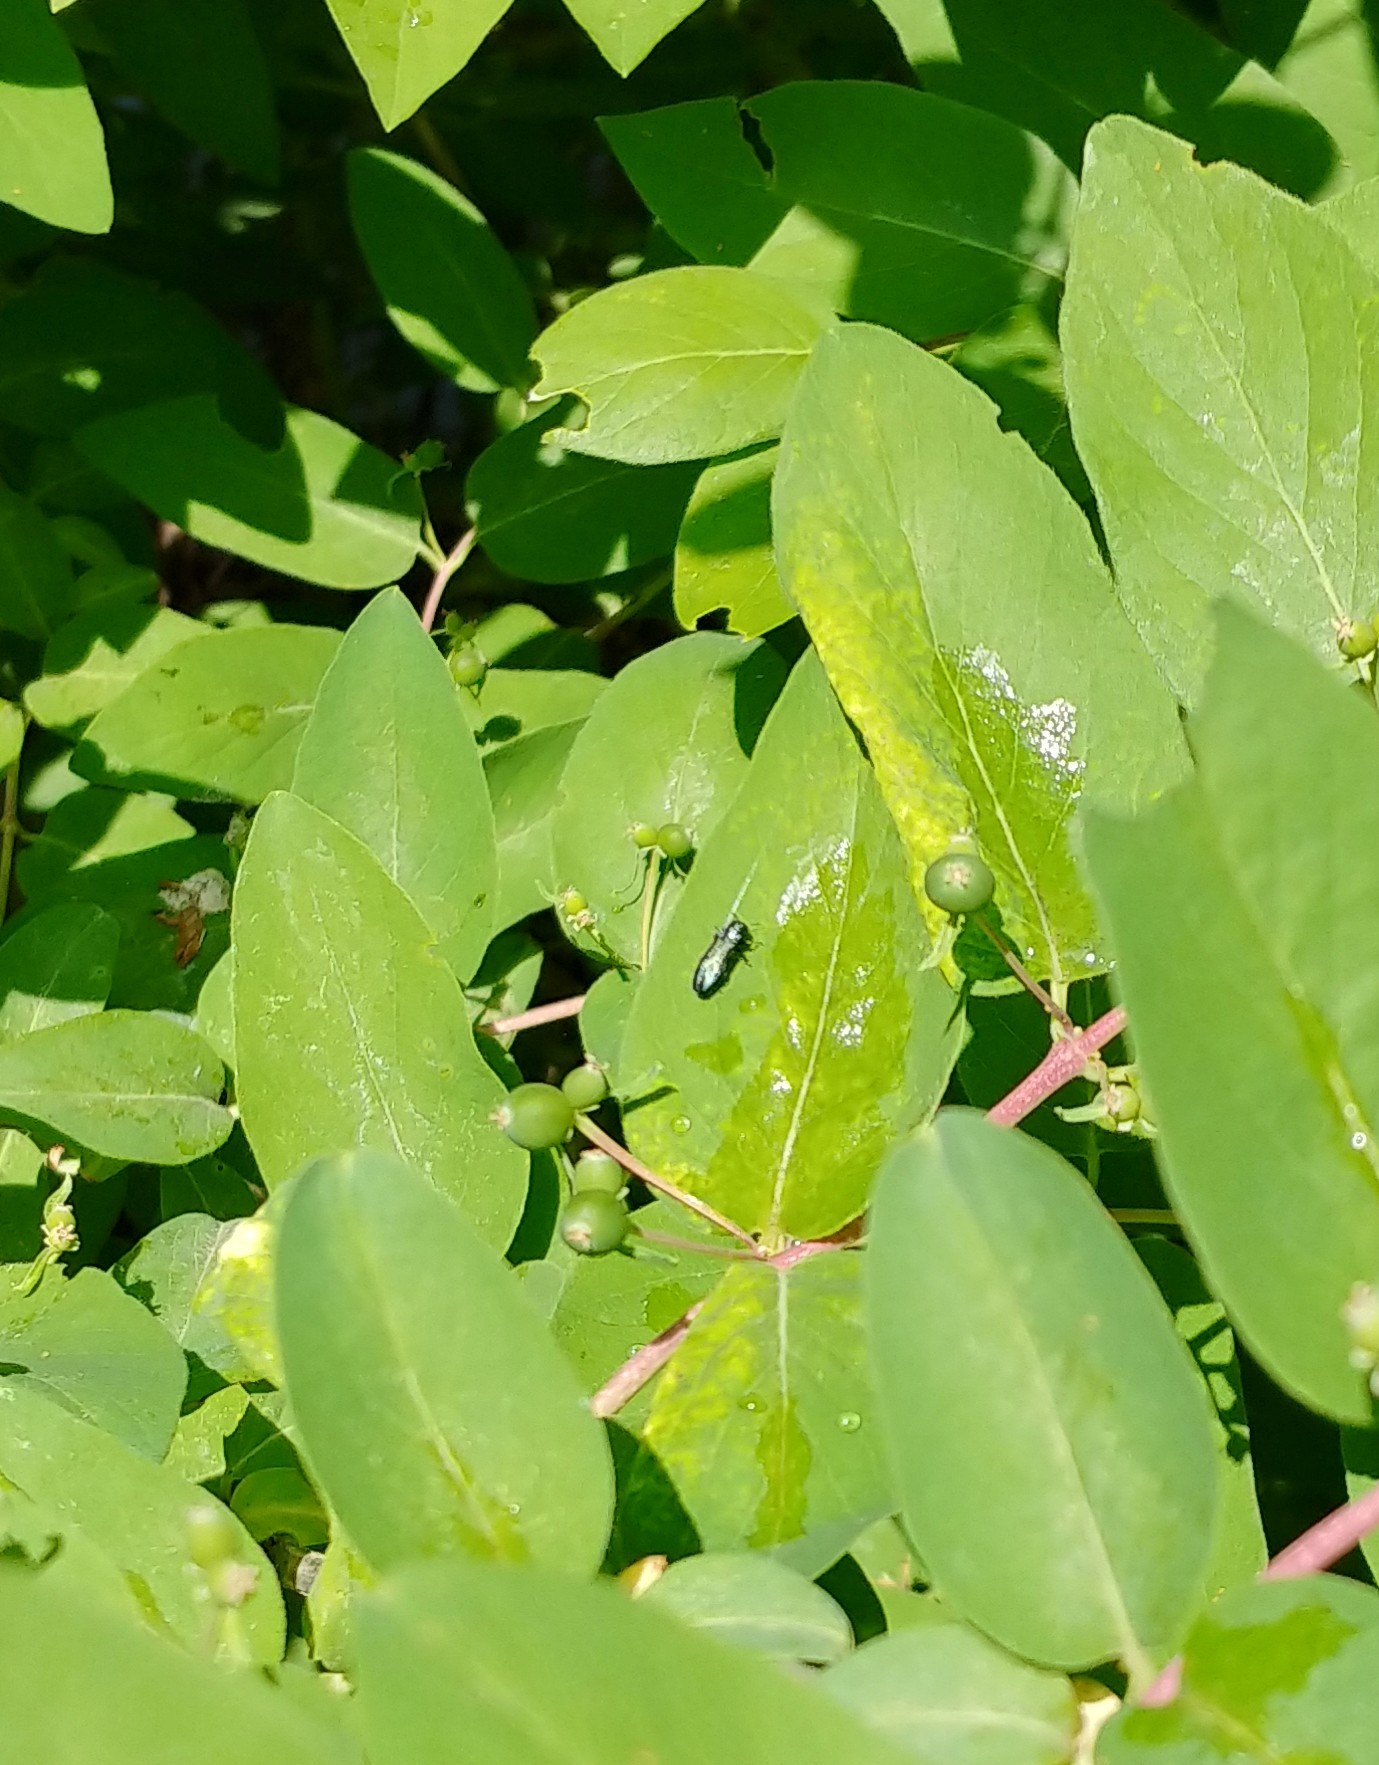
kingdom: Animalia
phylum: Arthropoda
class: Insecta
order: Coleoptera
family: Buprestidae
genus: Agrilus
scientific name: Agrilus cyanescens
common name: Bluish borer beetle
